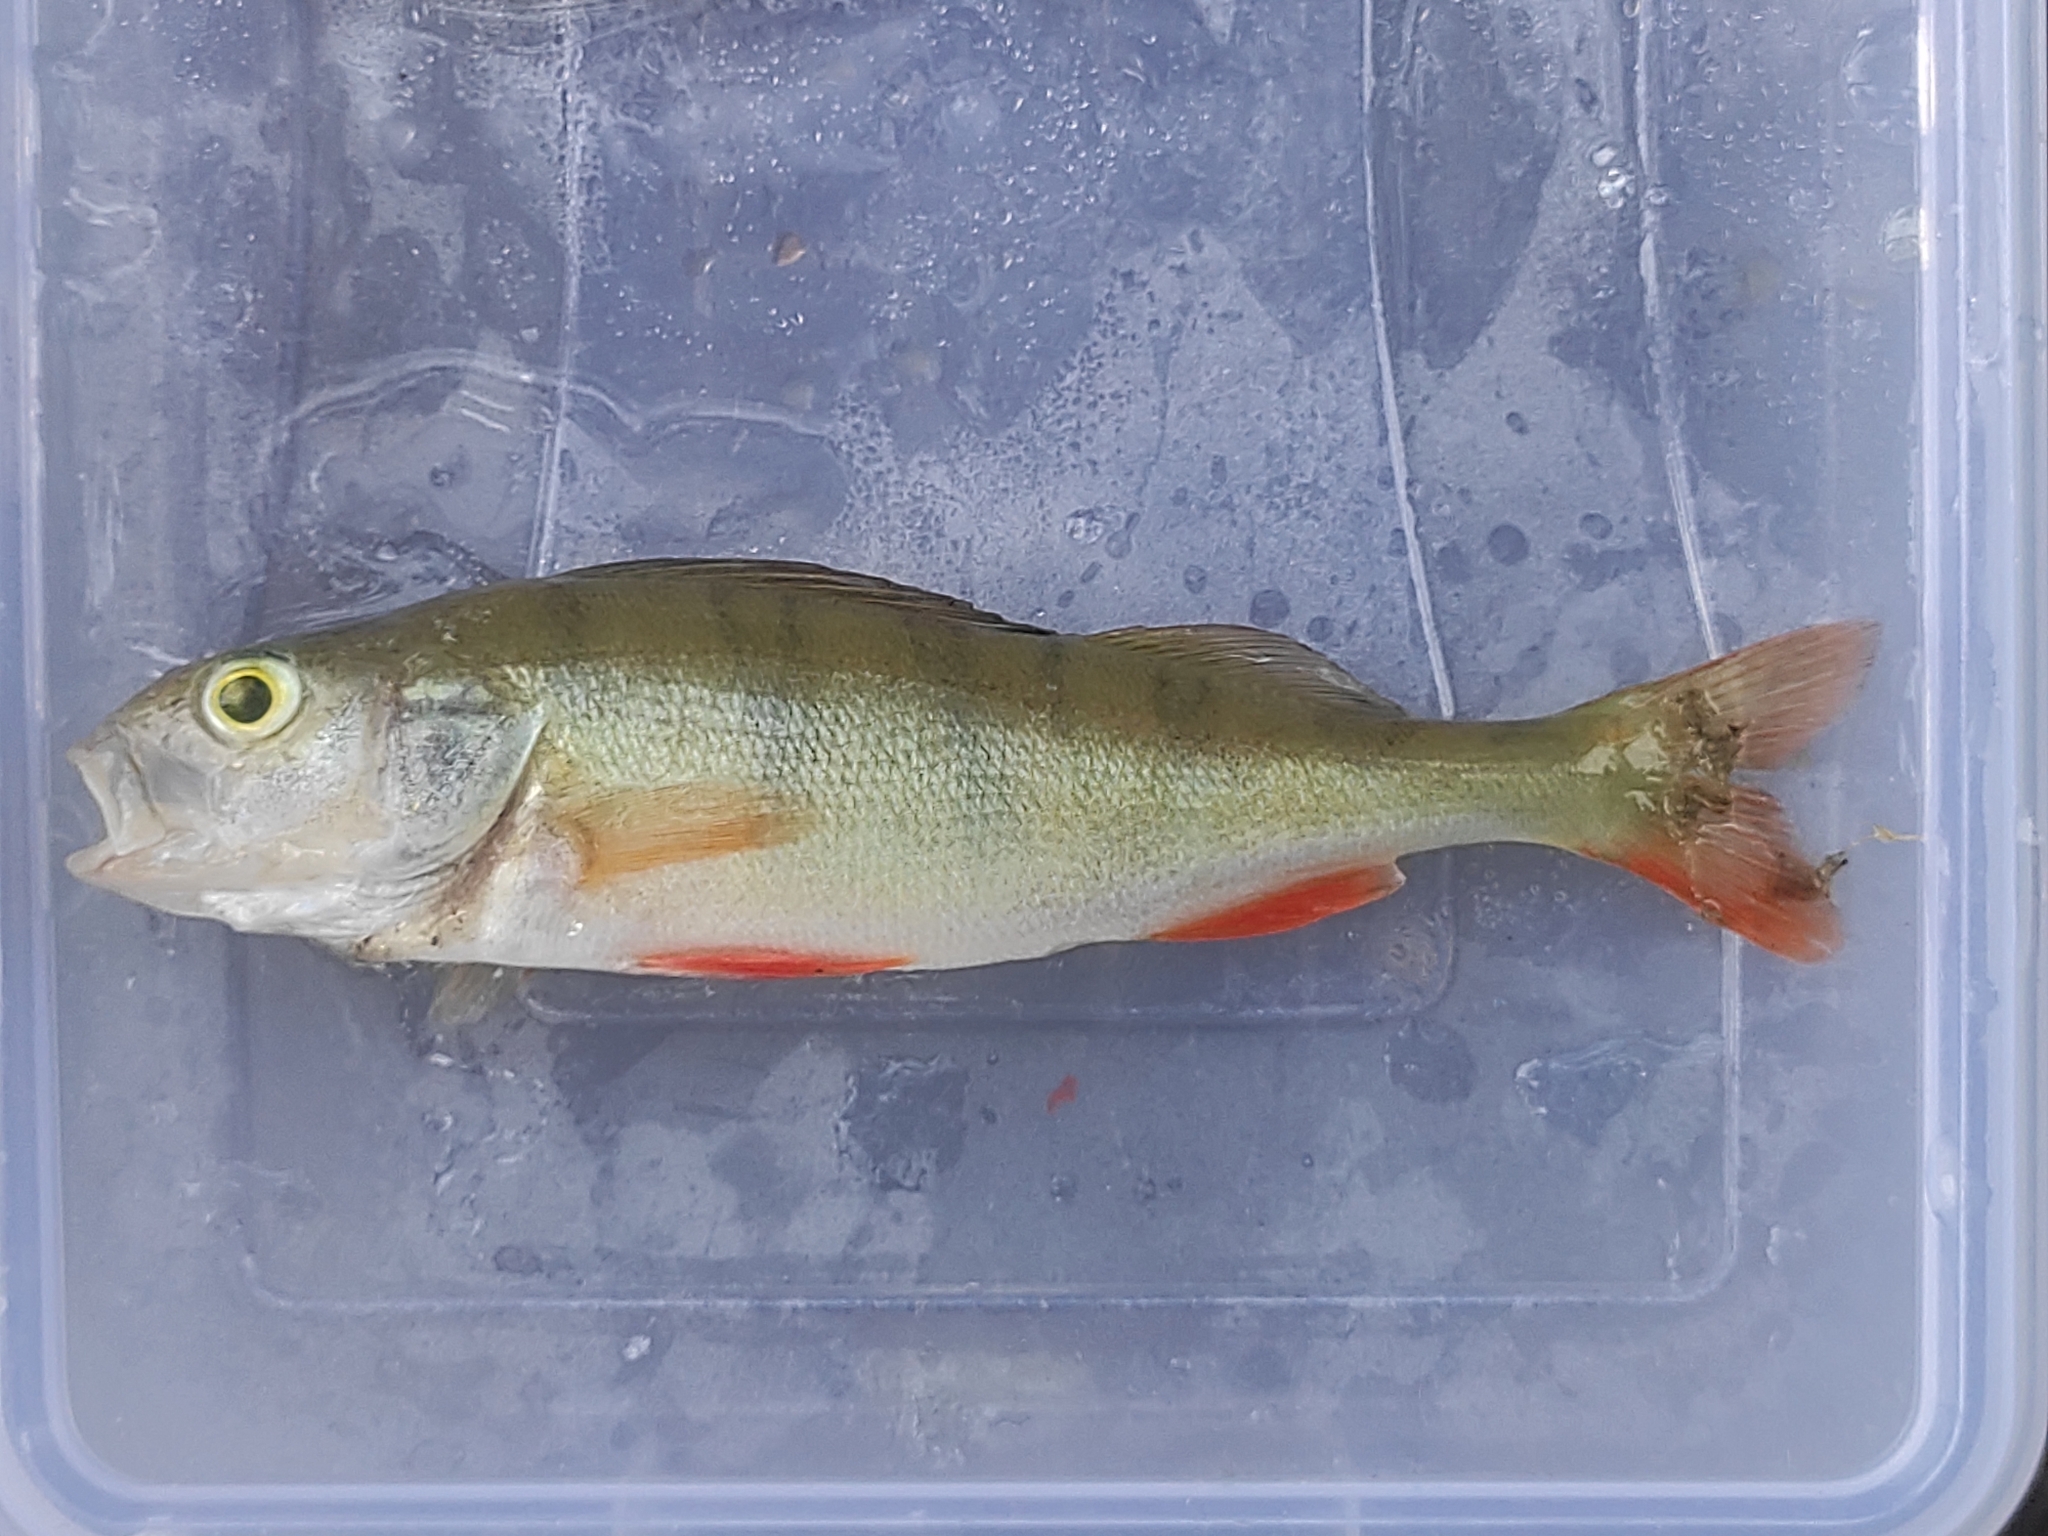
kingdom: Animalia
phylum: Chordata
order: Perciformes
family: Percidae
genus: Perca
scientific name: Perca fluviatilis
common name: Perch
